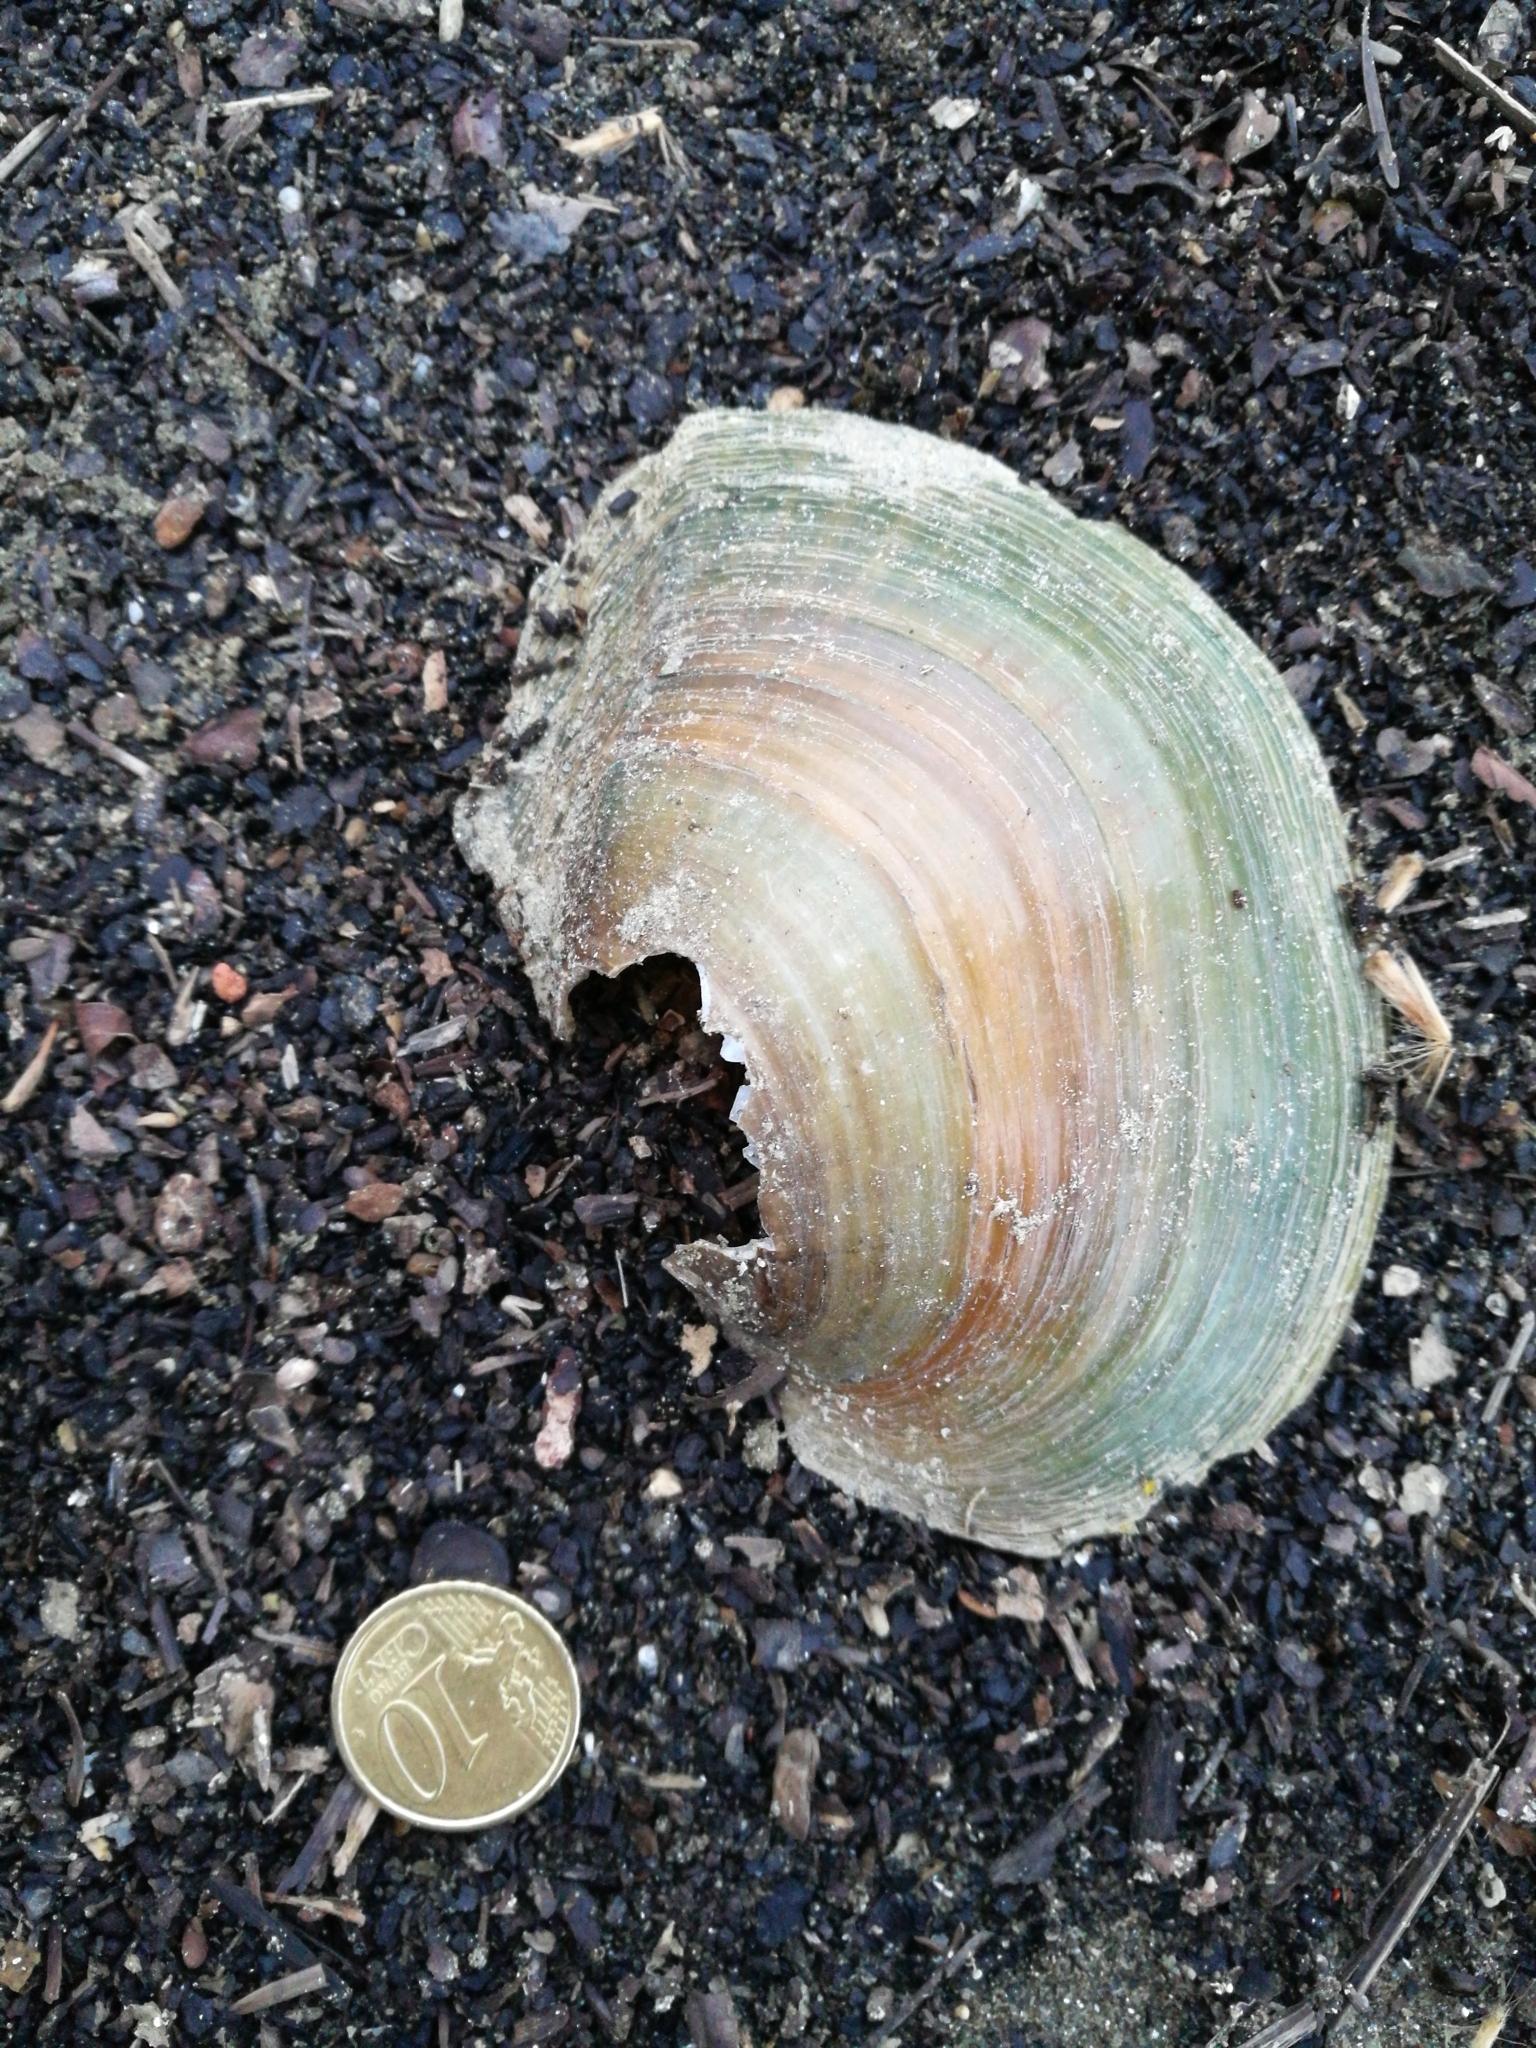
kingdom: Animalia
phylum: Mollusca
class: Bivalvia
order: Unionida
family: Unionidae
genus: Sinanodonta
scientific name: Sinanodonta woodiana
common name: Chinese pond mussel
